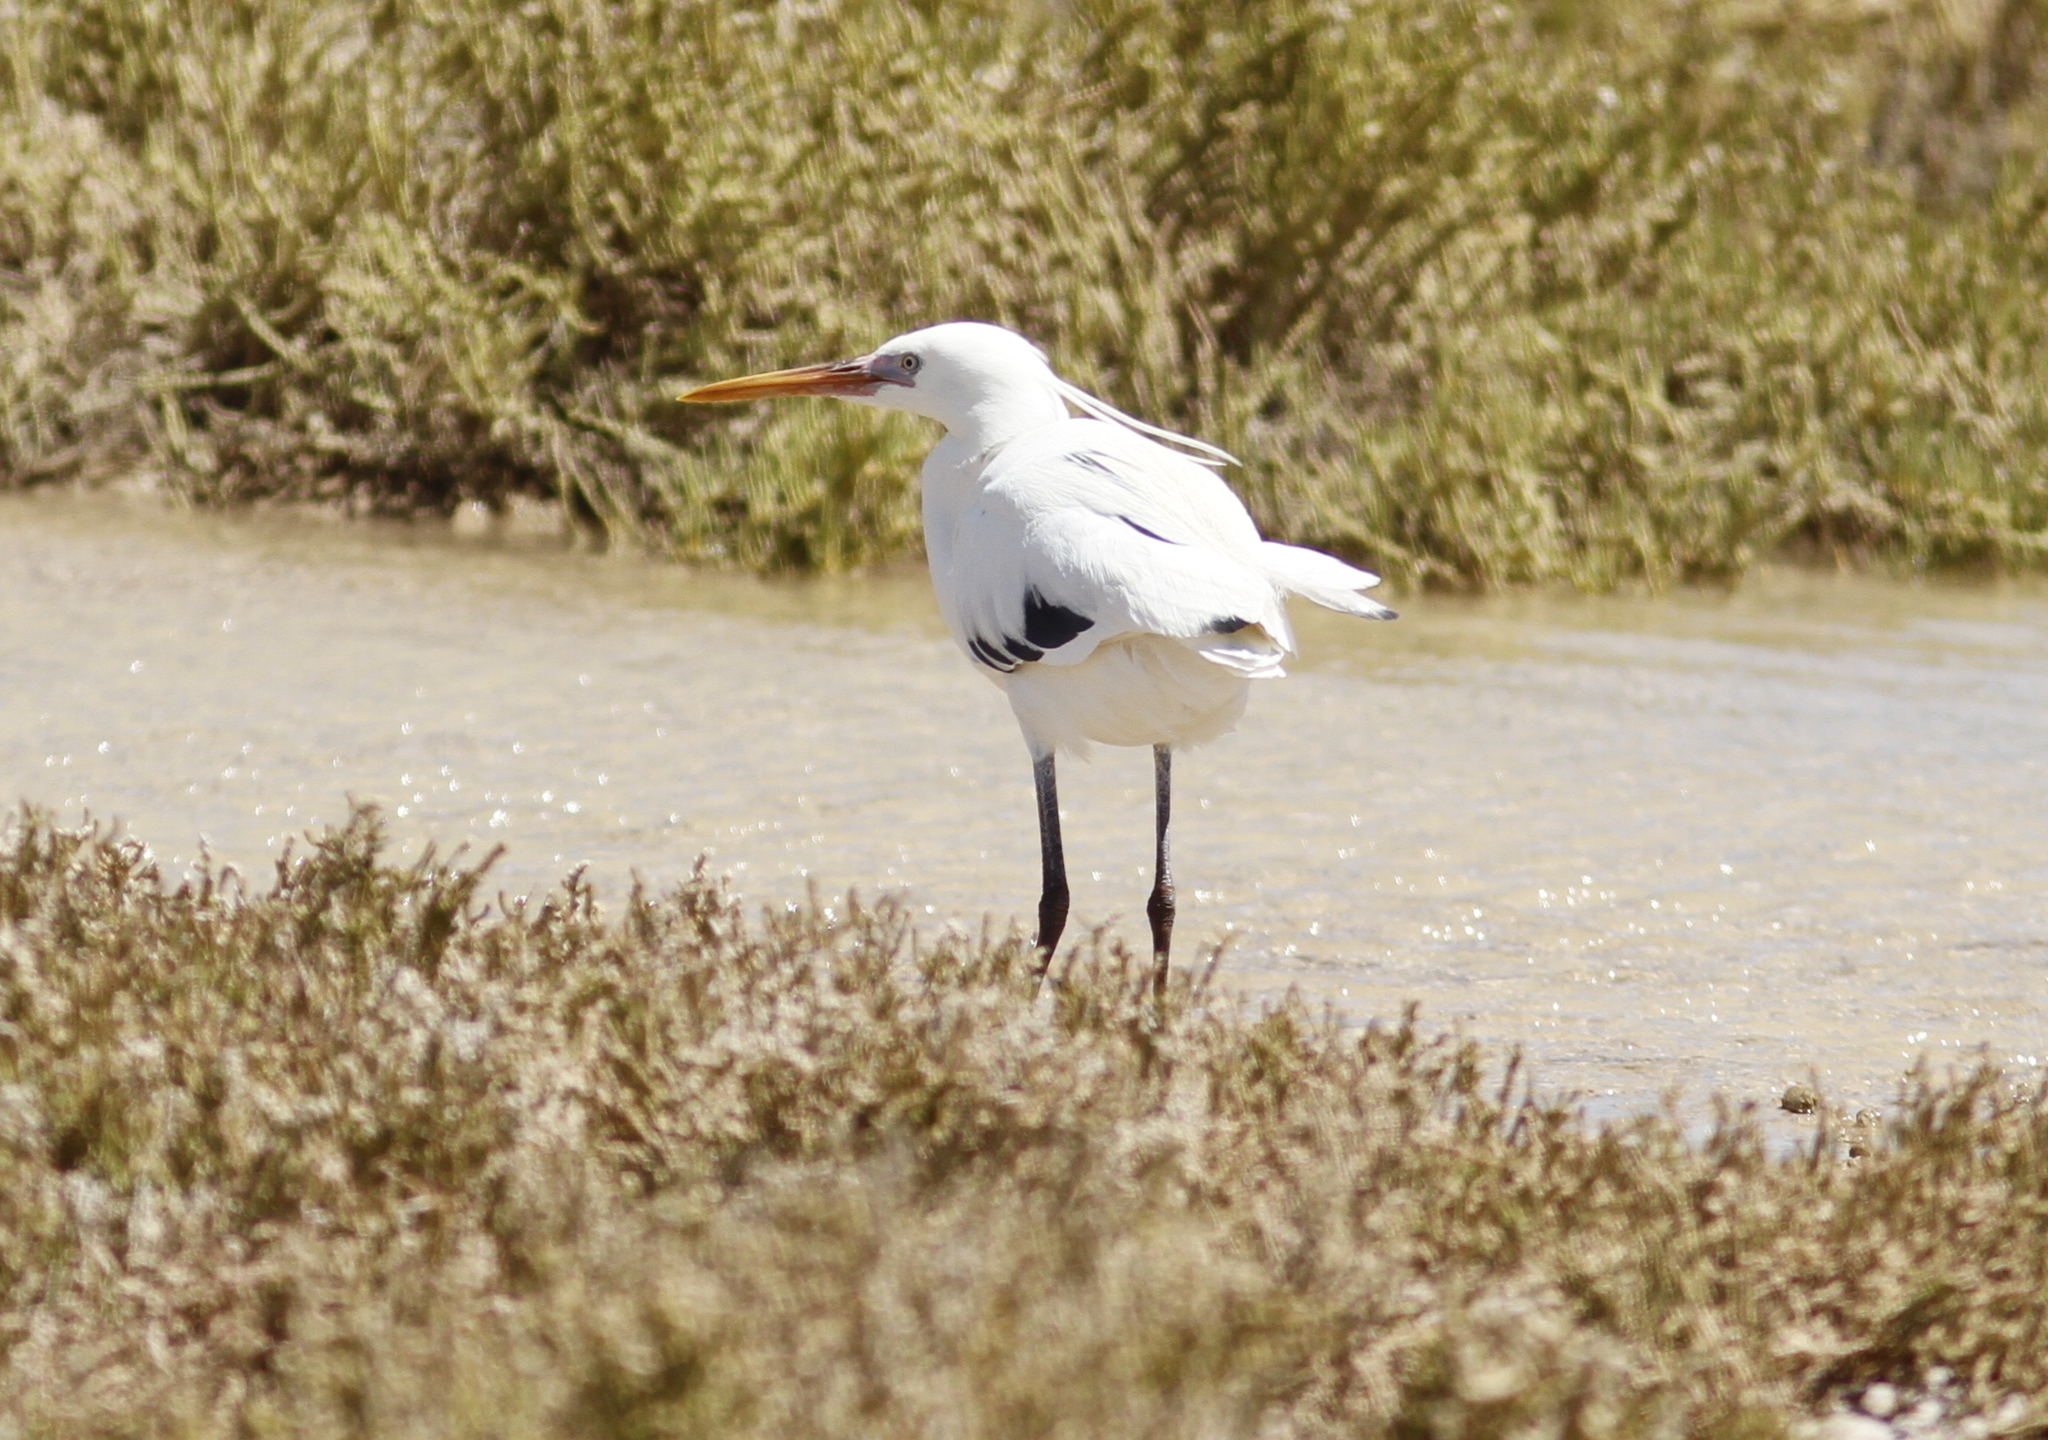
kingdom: Animalia
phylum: Chordata
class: Aves
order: Pelecaniformes
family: Ardeidae
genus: Egretta
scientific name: Egretta gularis
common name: Western reef-heron
